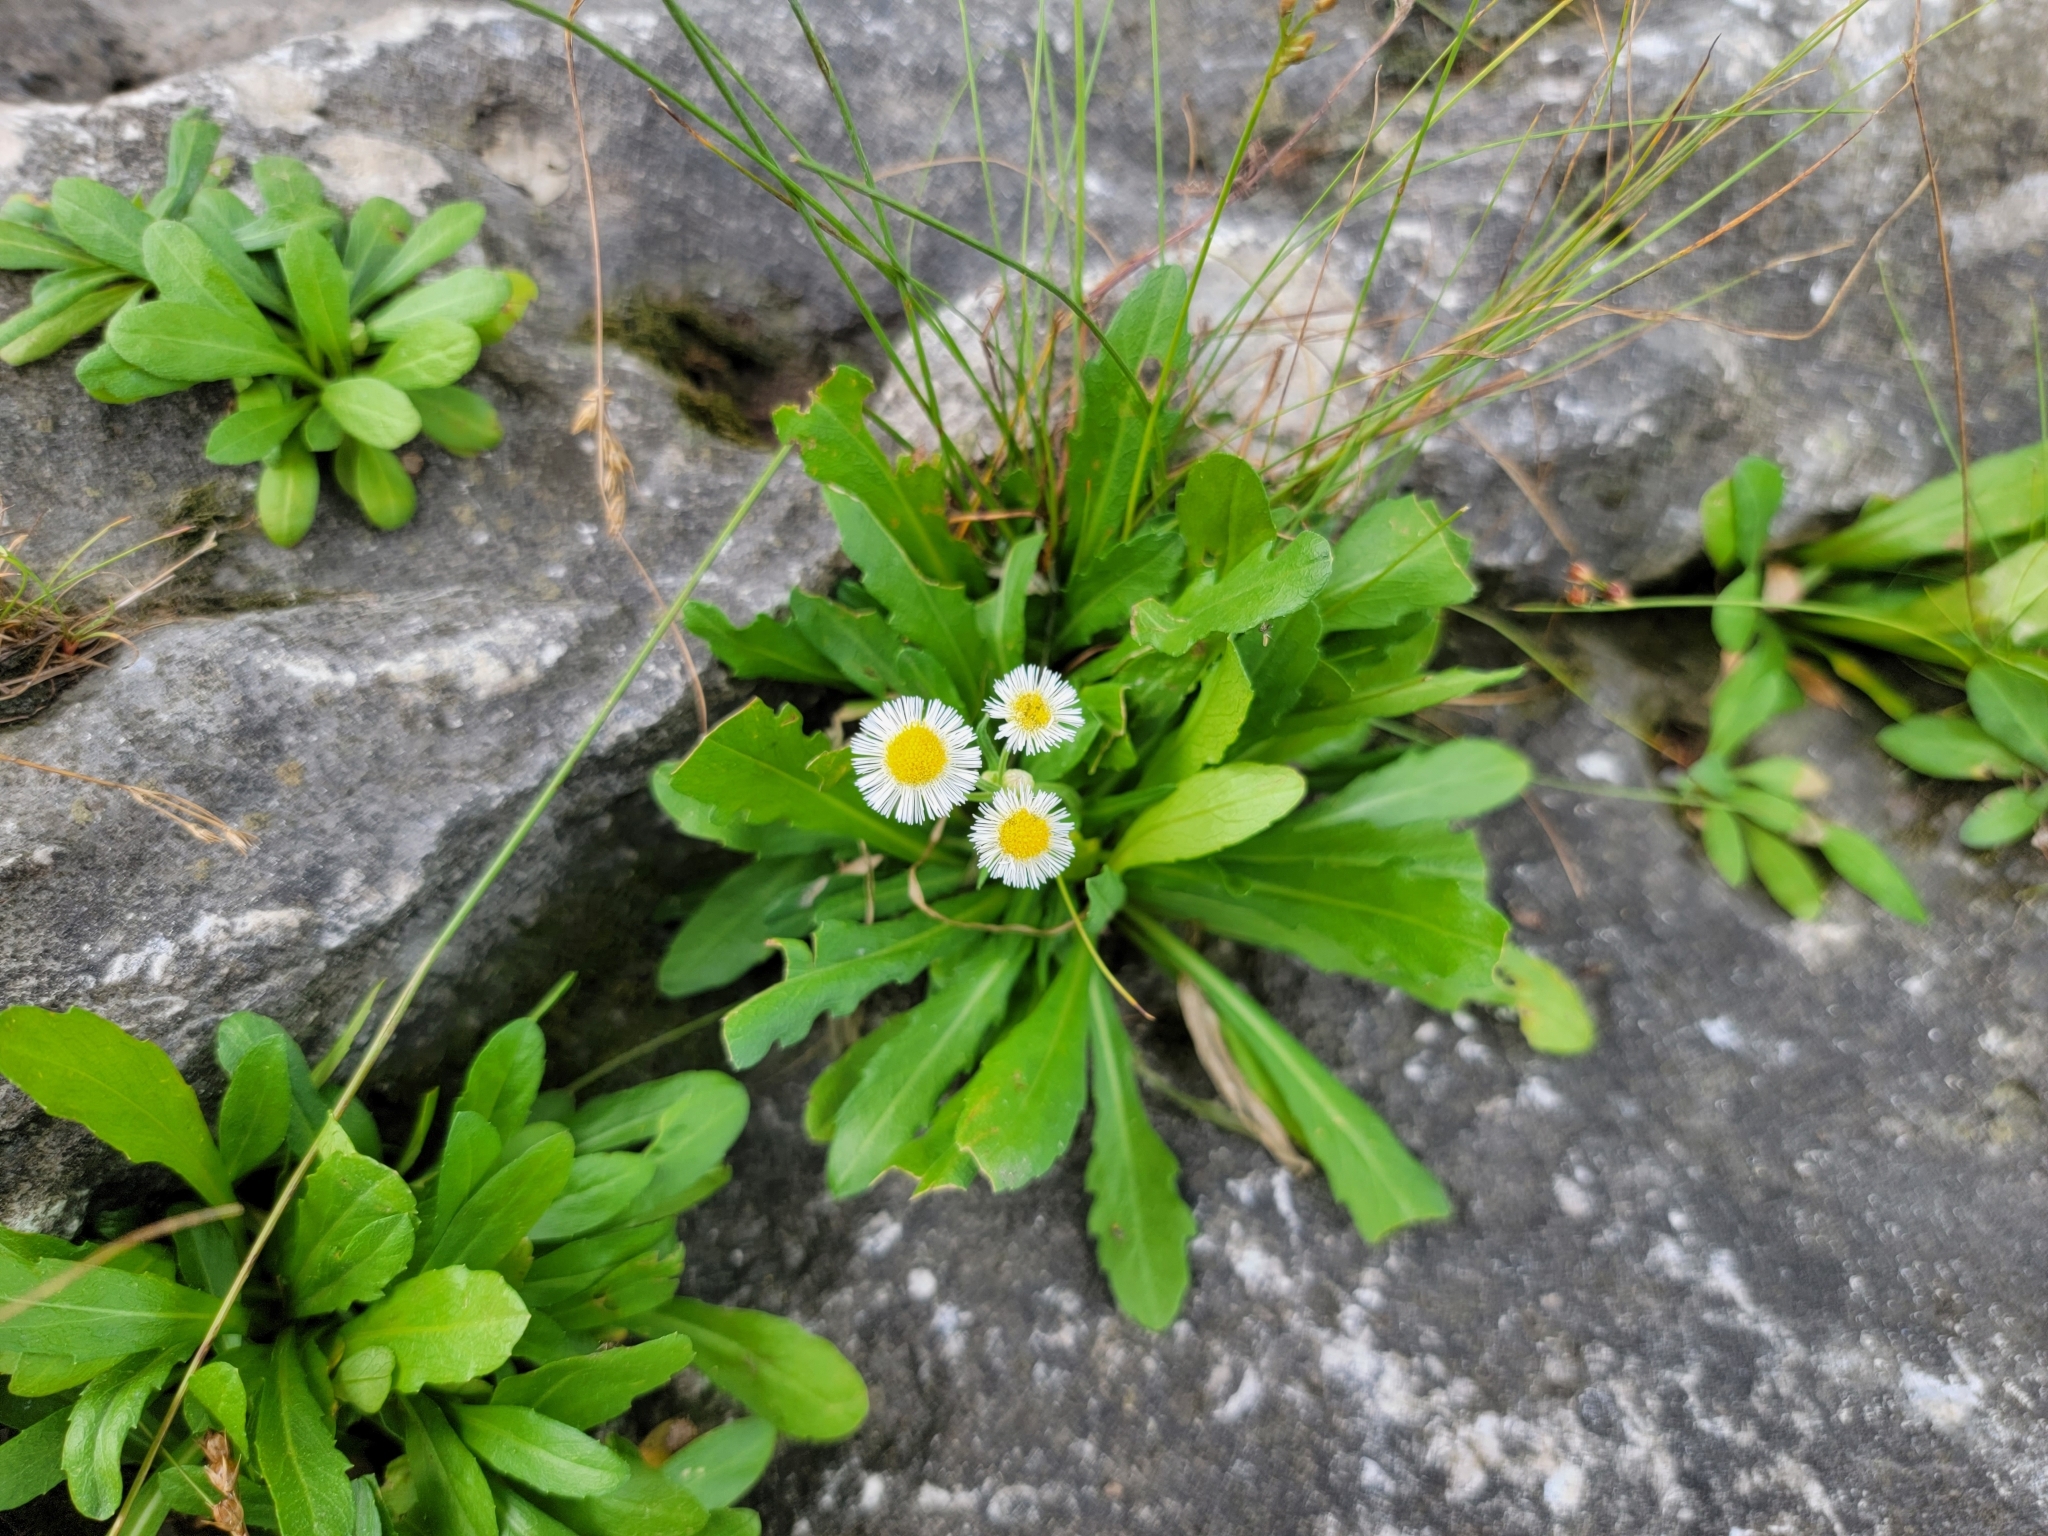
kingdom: Plantae
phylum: Tracheophyta
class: Magnoliopsida
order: Asterales
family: Asteraceae
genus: Erigeron
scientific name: Erigeron philadelphicus
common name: Robin's-plantain
